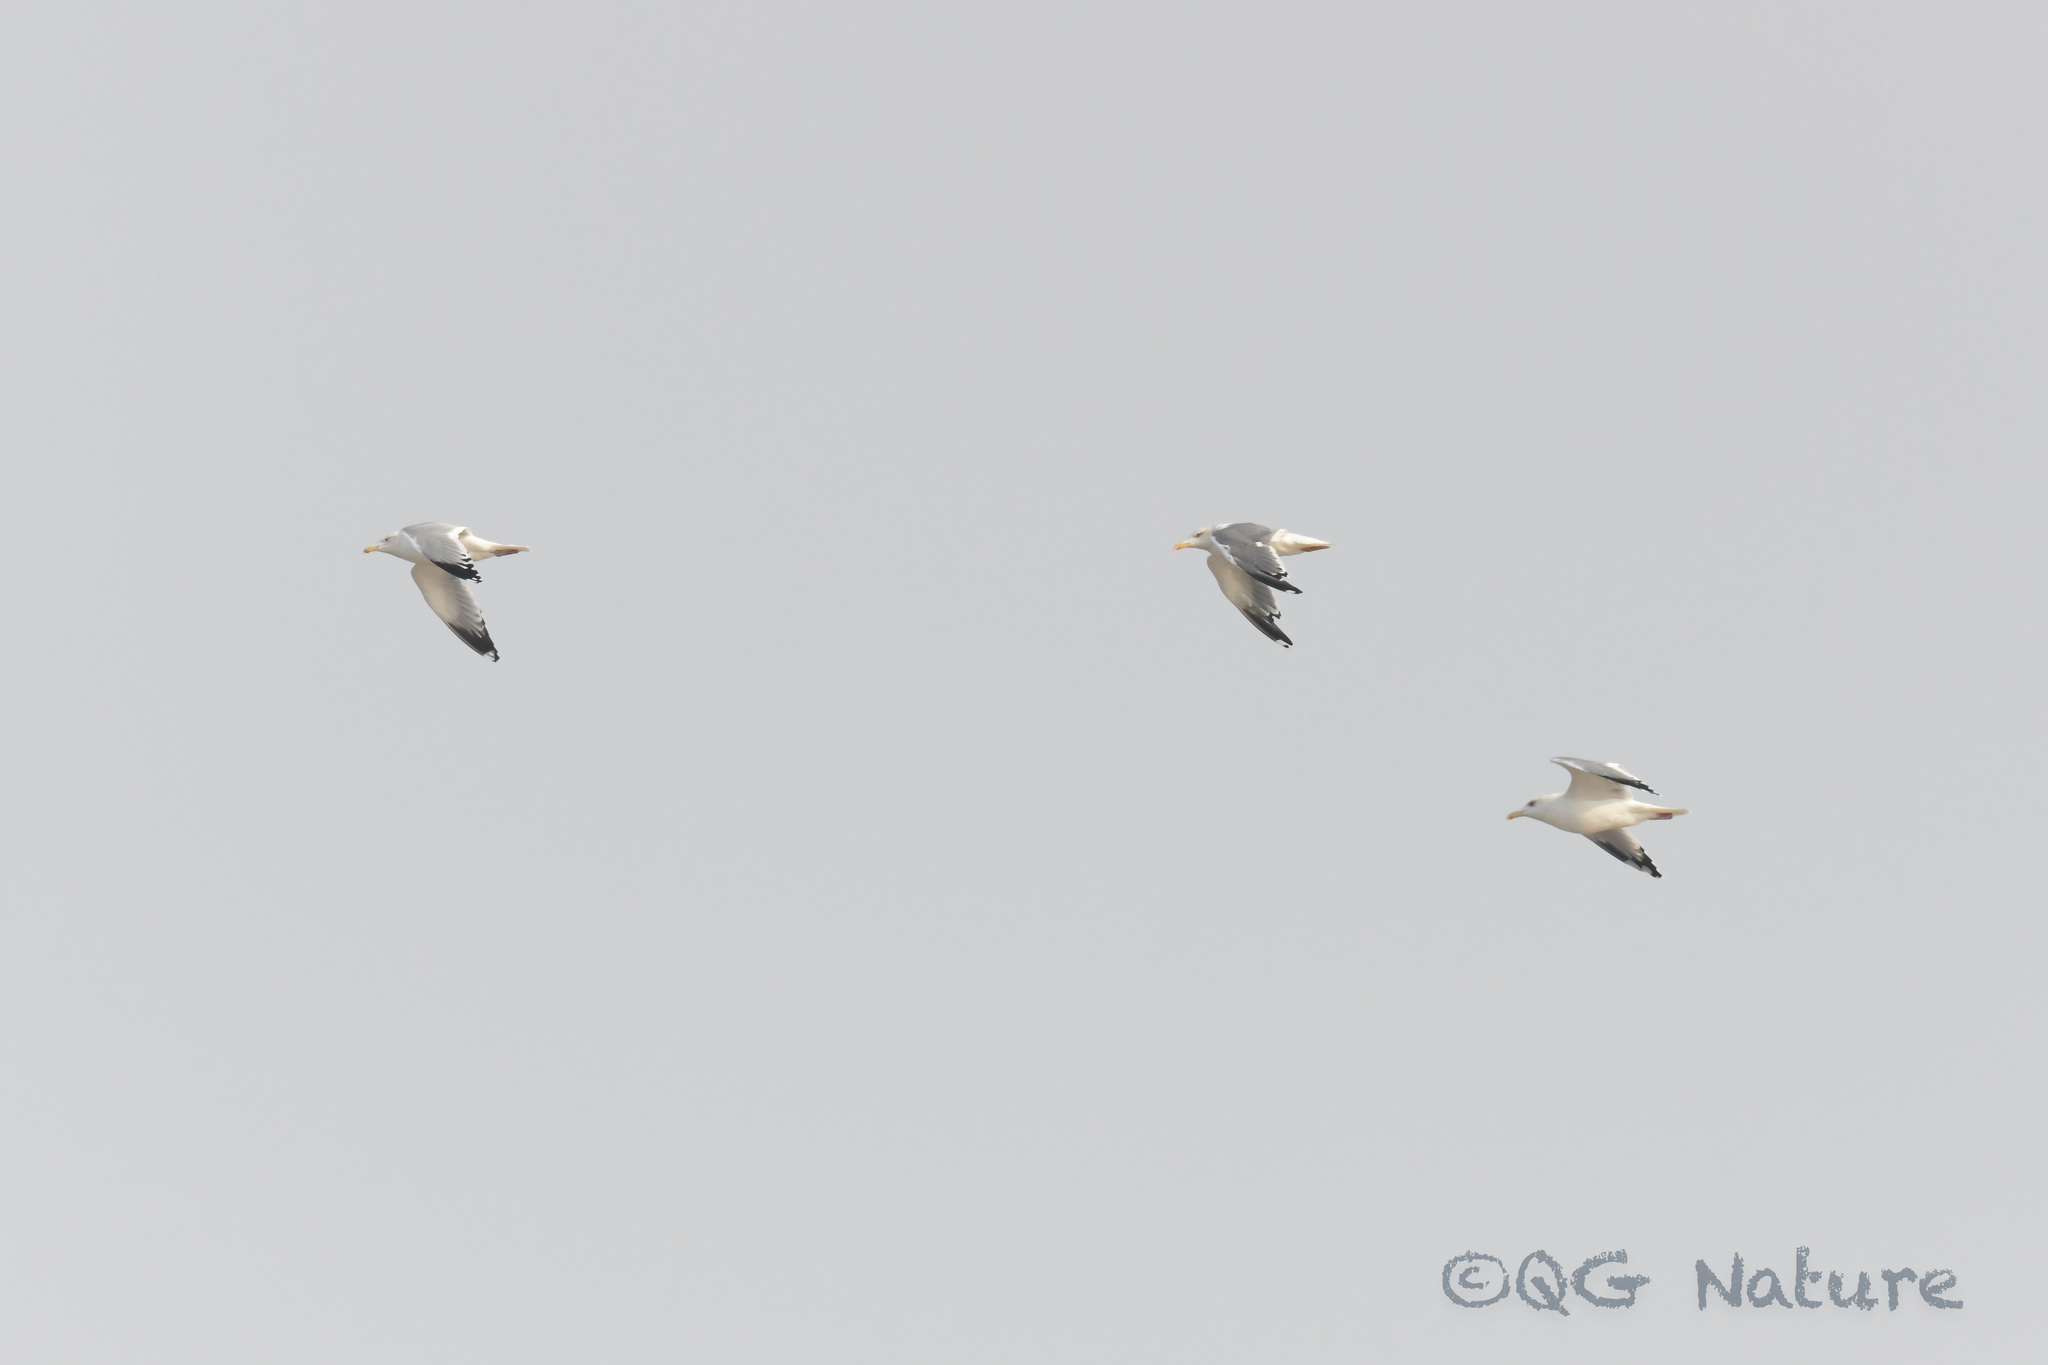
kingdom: Animalia
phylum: Chordata
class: Aves
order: Charadriiformes
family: Laridae
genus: Larus
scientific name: Larus vegae
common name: Vega gull
